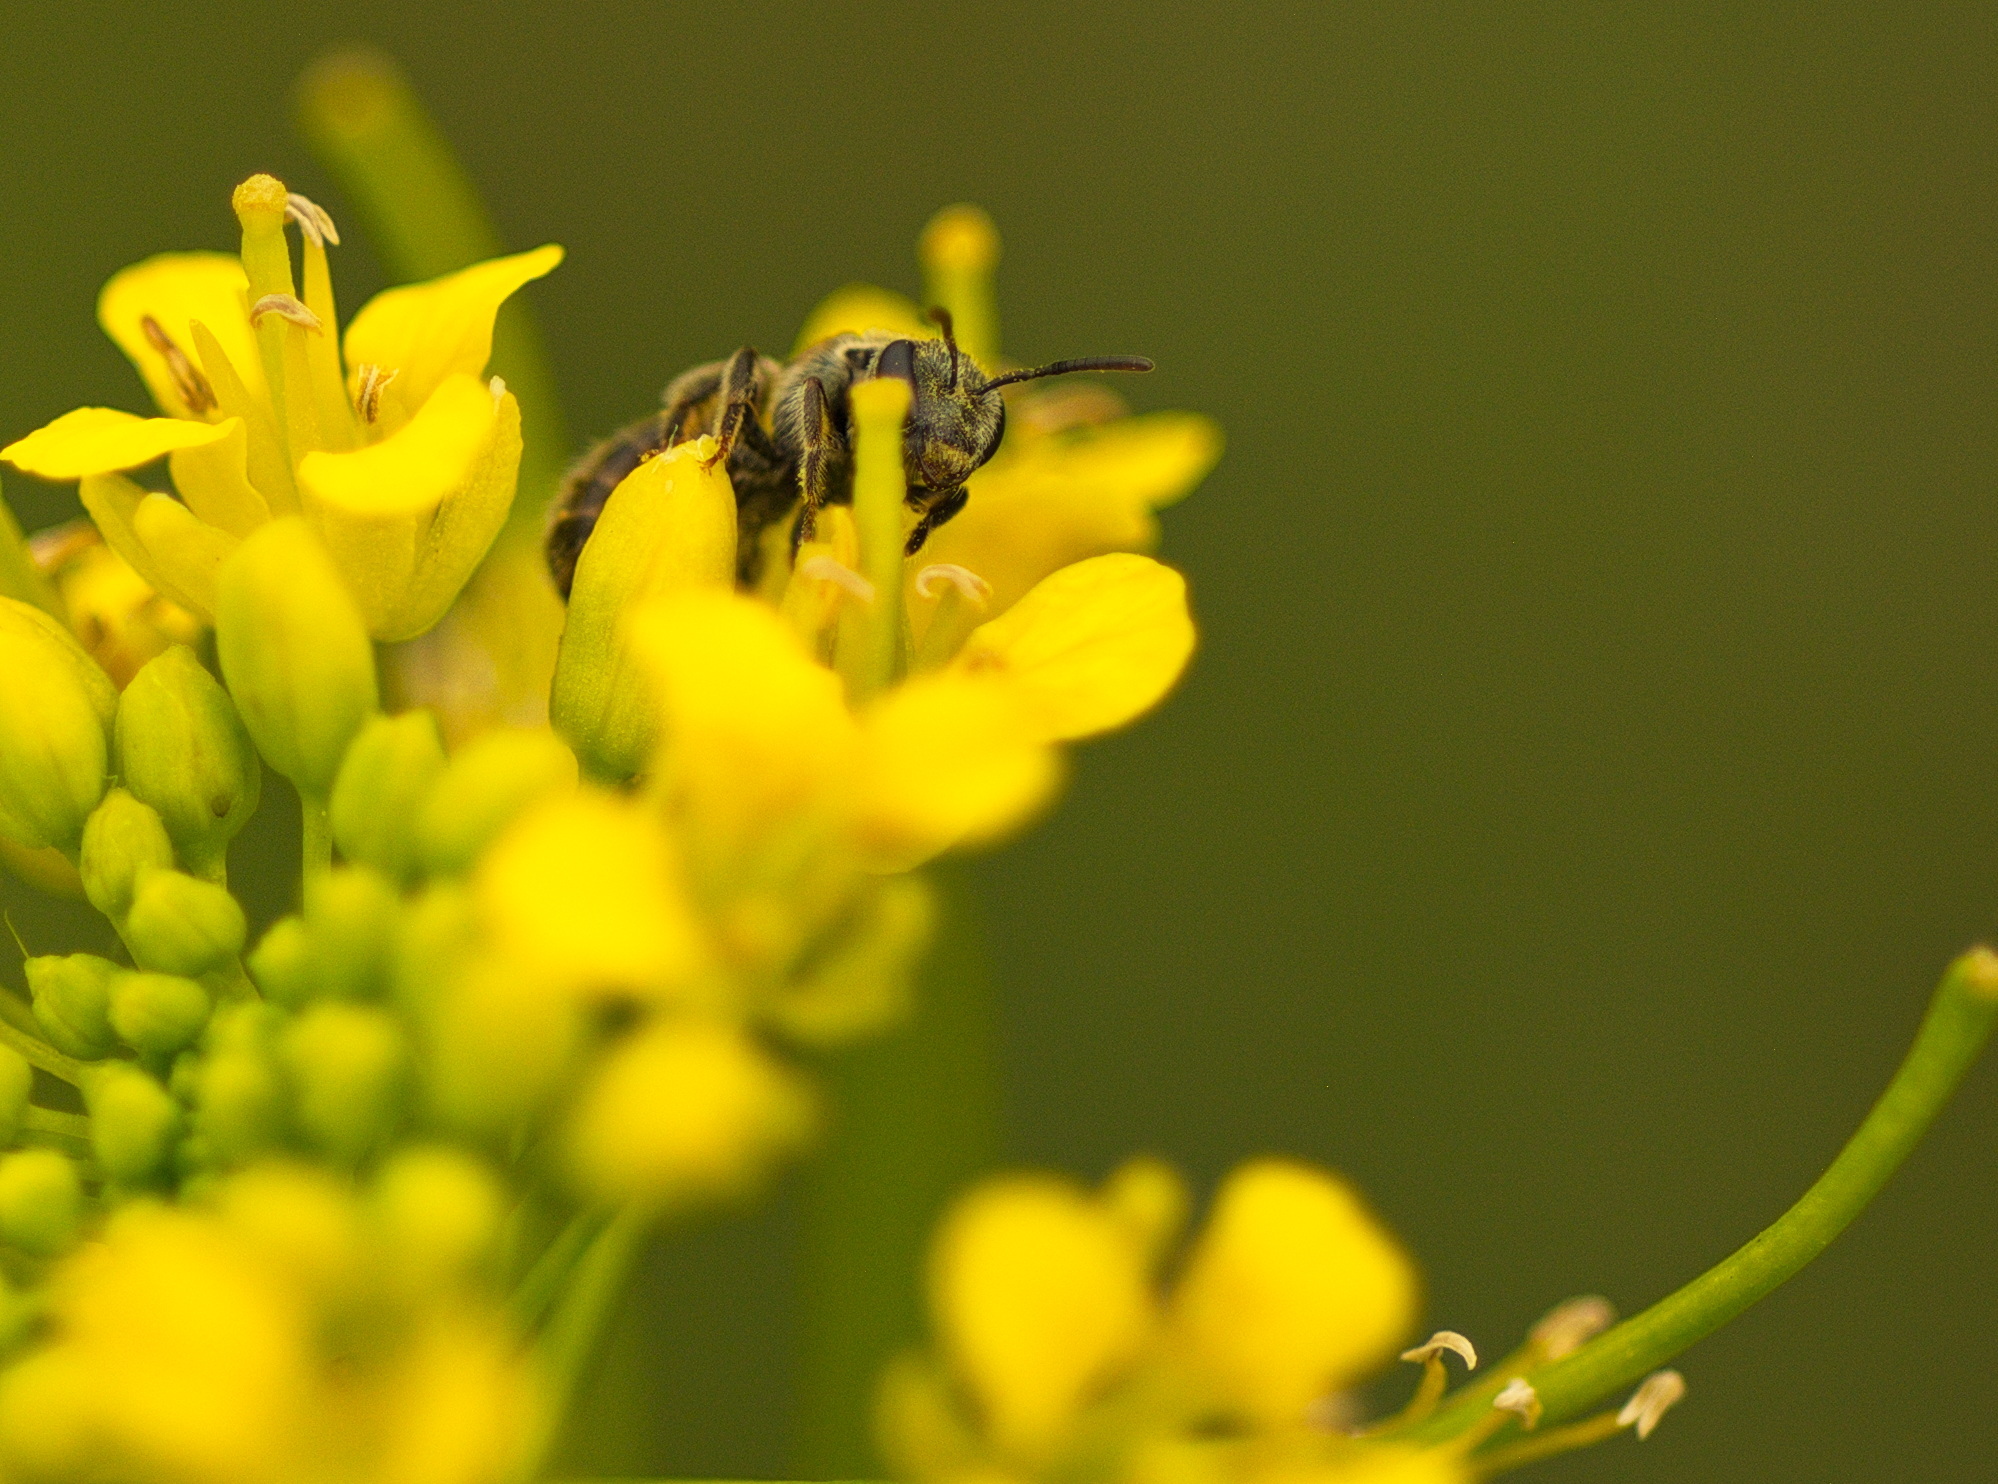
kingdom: Animalia
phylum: Arthropoda
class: Insecta
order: Hymenoptera
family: Halictidae
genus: Dialictus
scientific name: Dialictus
